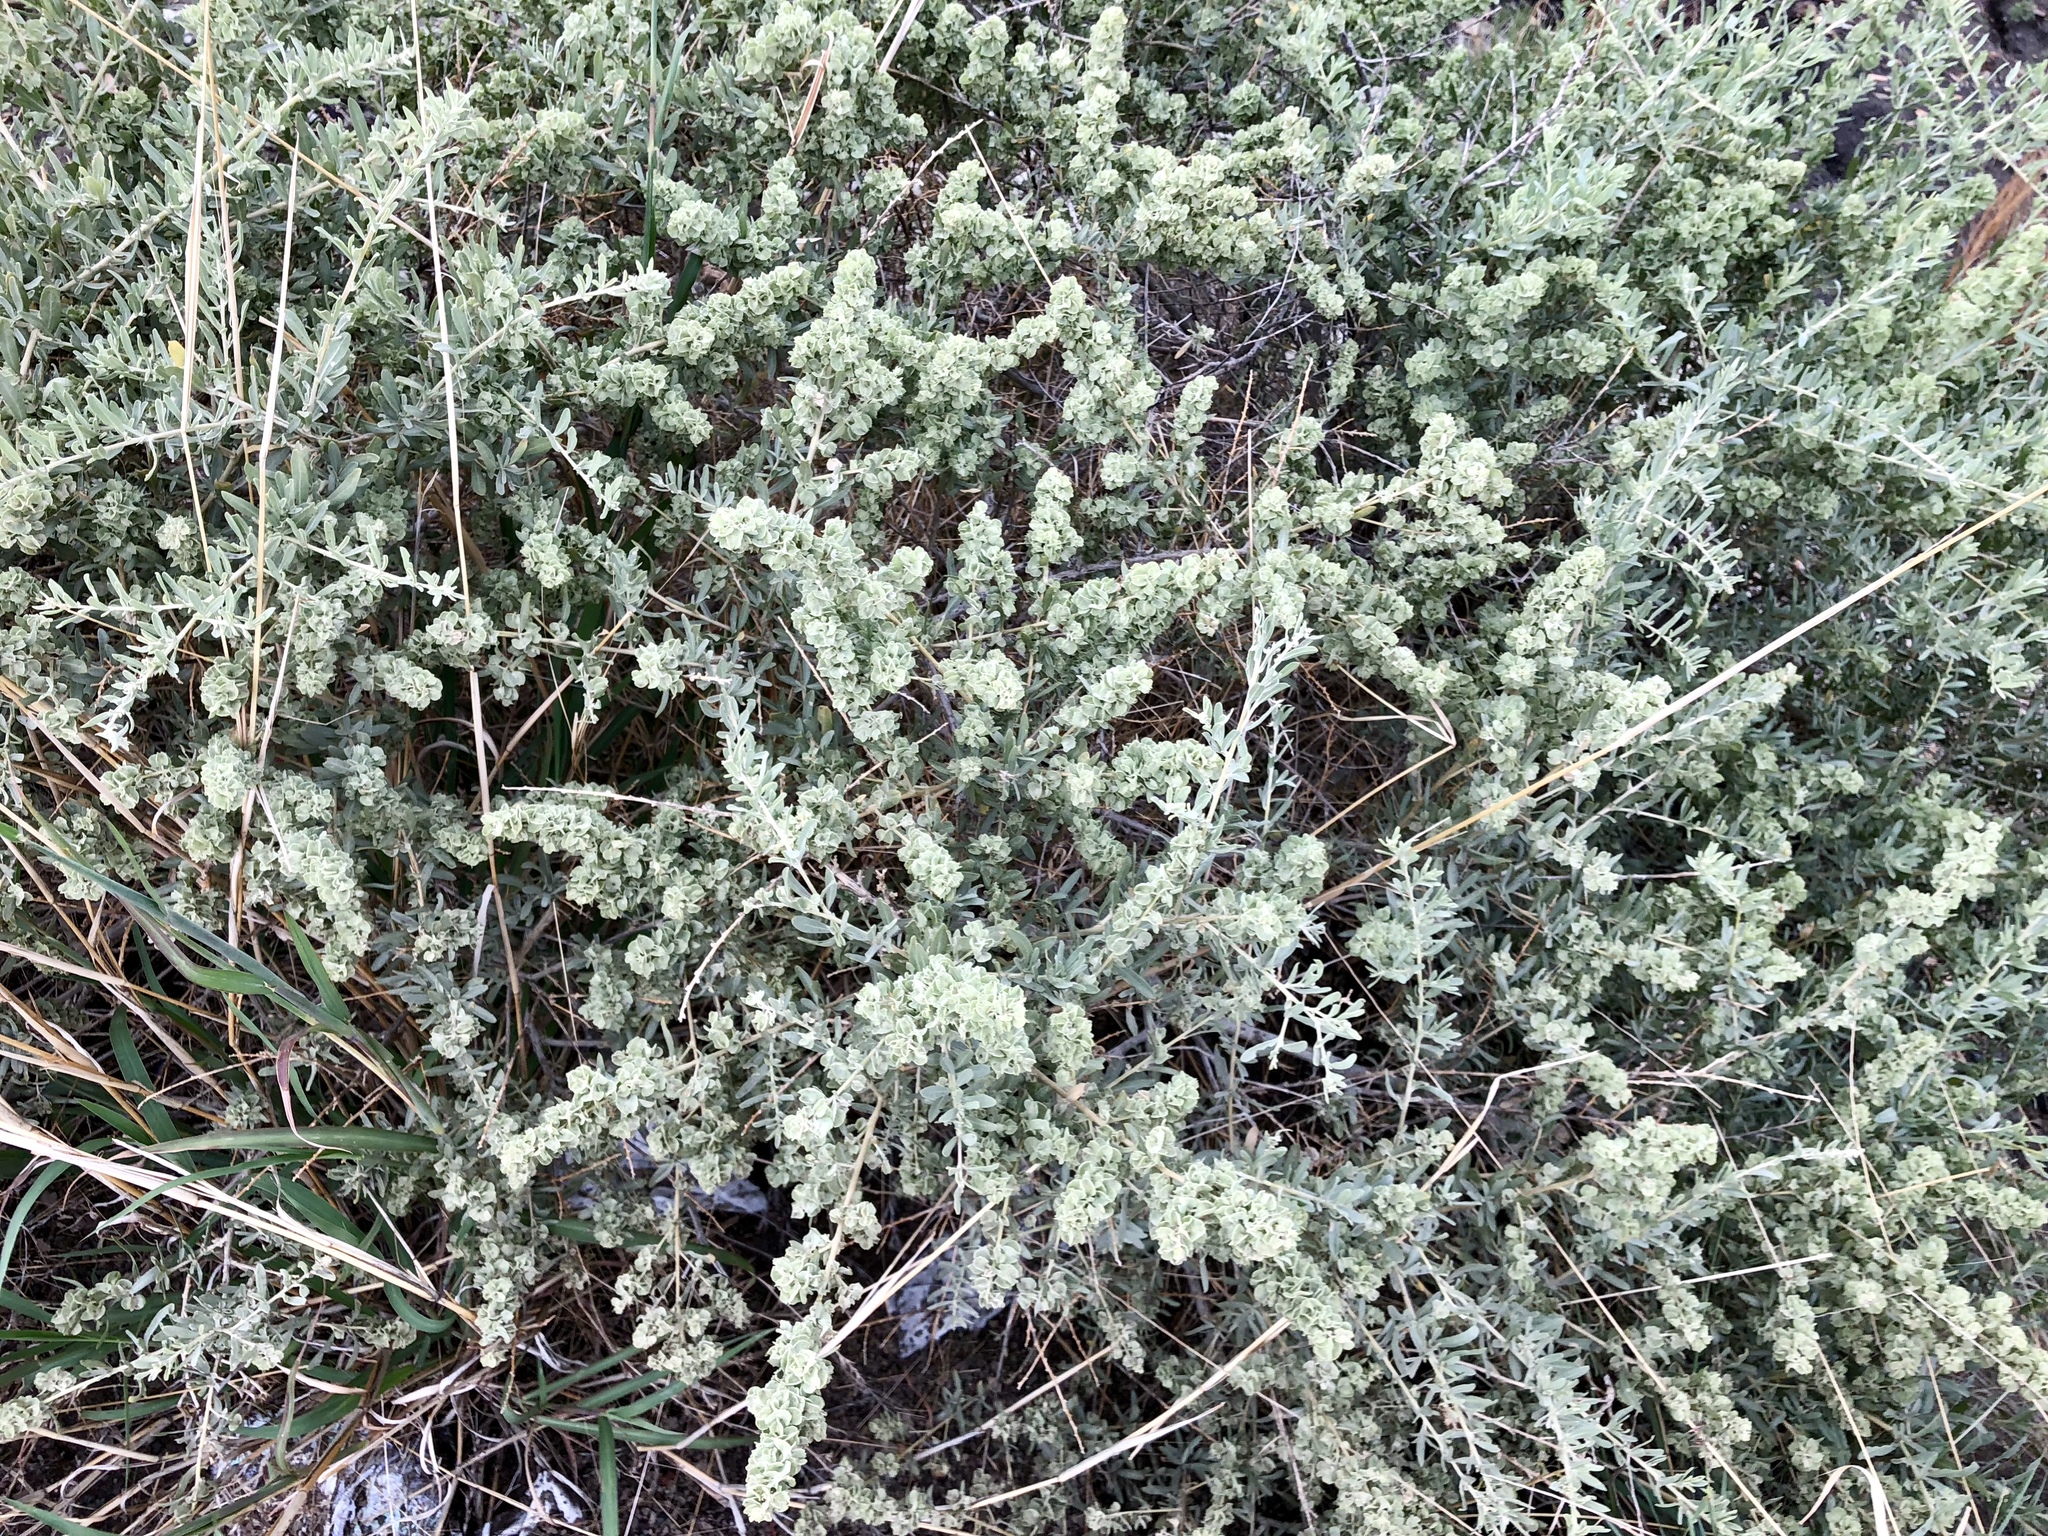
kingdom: Plantae
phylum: Tracheophyta
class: Magnoliopsida
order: Caryophyllales
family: Amaranthaceae
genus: Atriplex
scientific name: Atriplex canescens
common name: Four-wing saltbush
